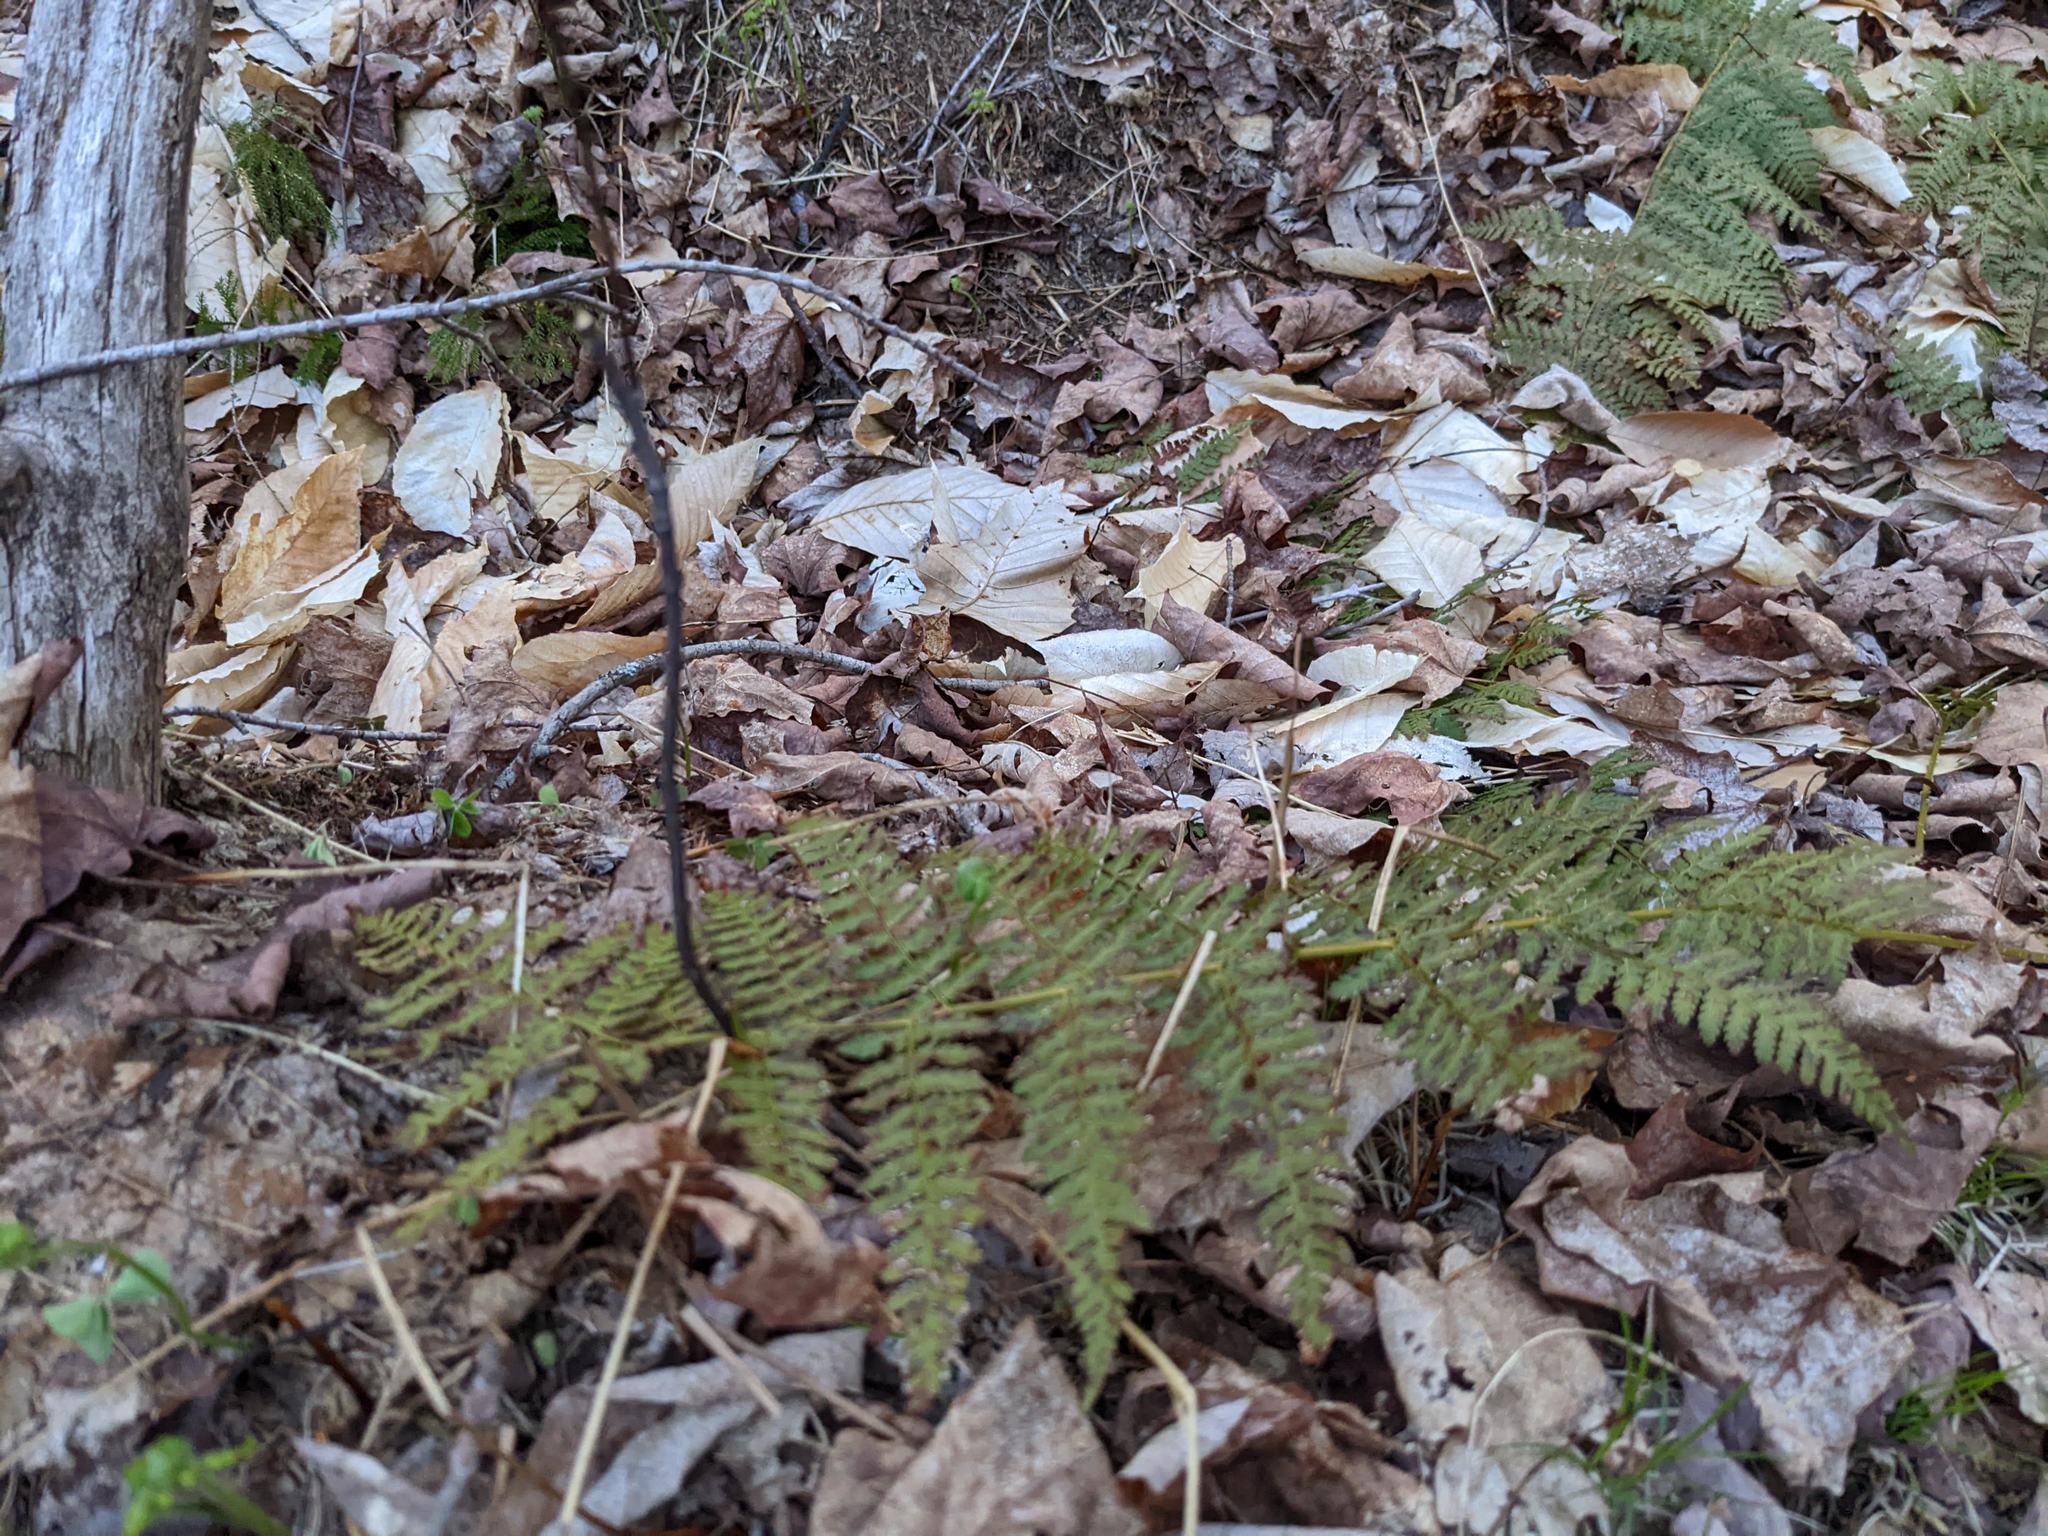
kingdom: Plantae
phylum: Tracheophyta
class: Polypodiopsida
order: Polypodiales
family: Dryopteridaceae
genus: Dryopteris
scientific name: Dryopteris intermedia
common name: Evergreen wood fern
